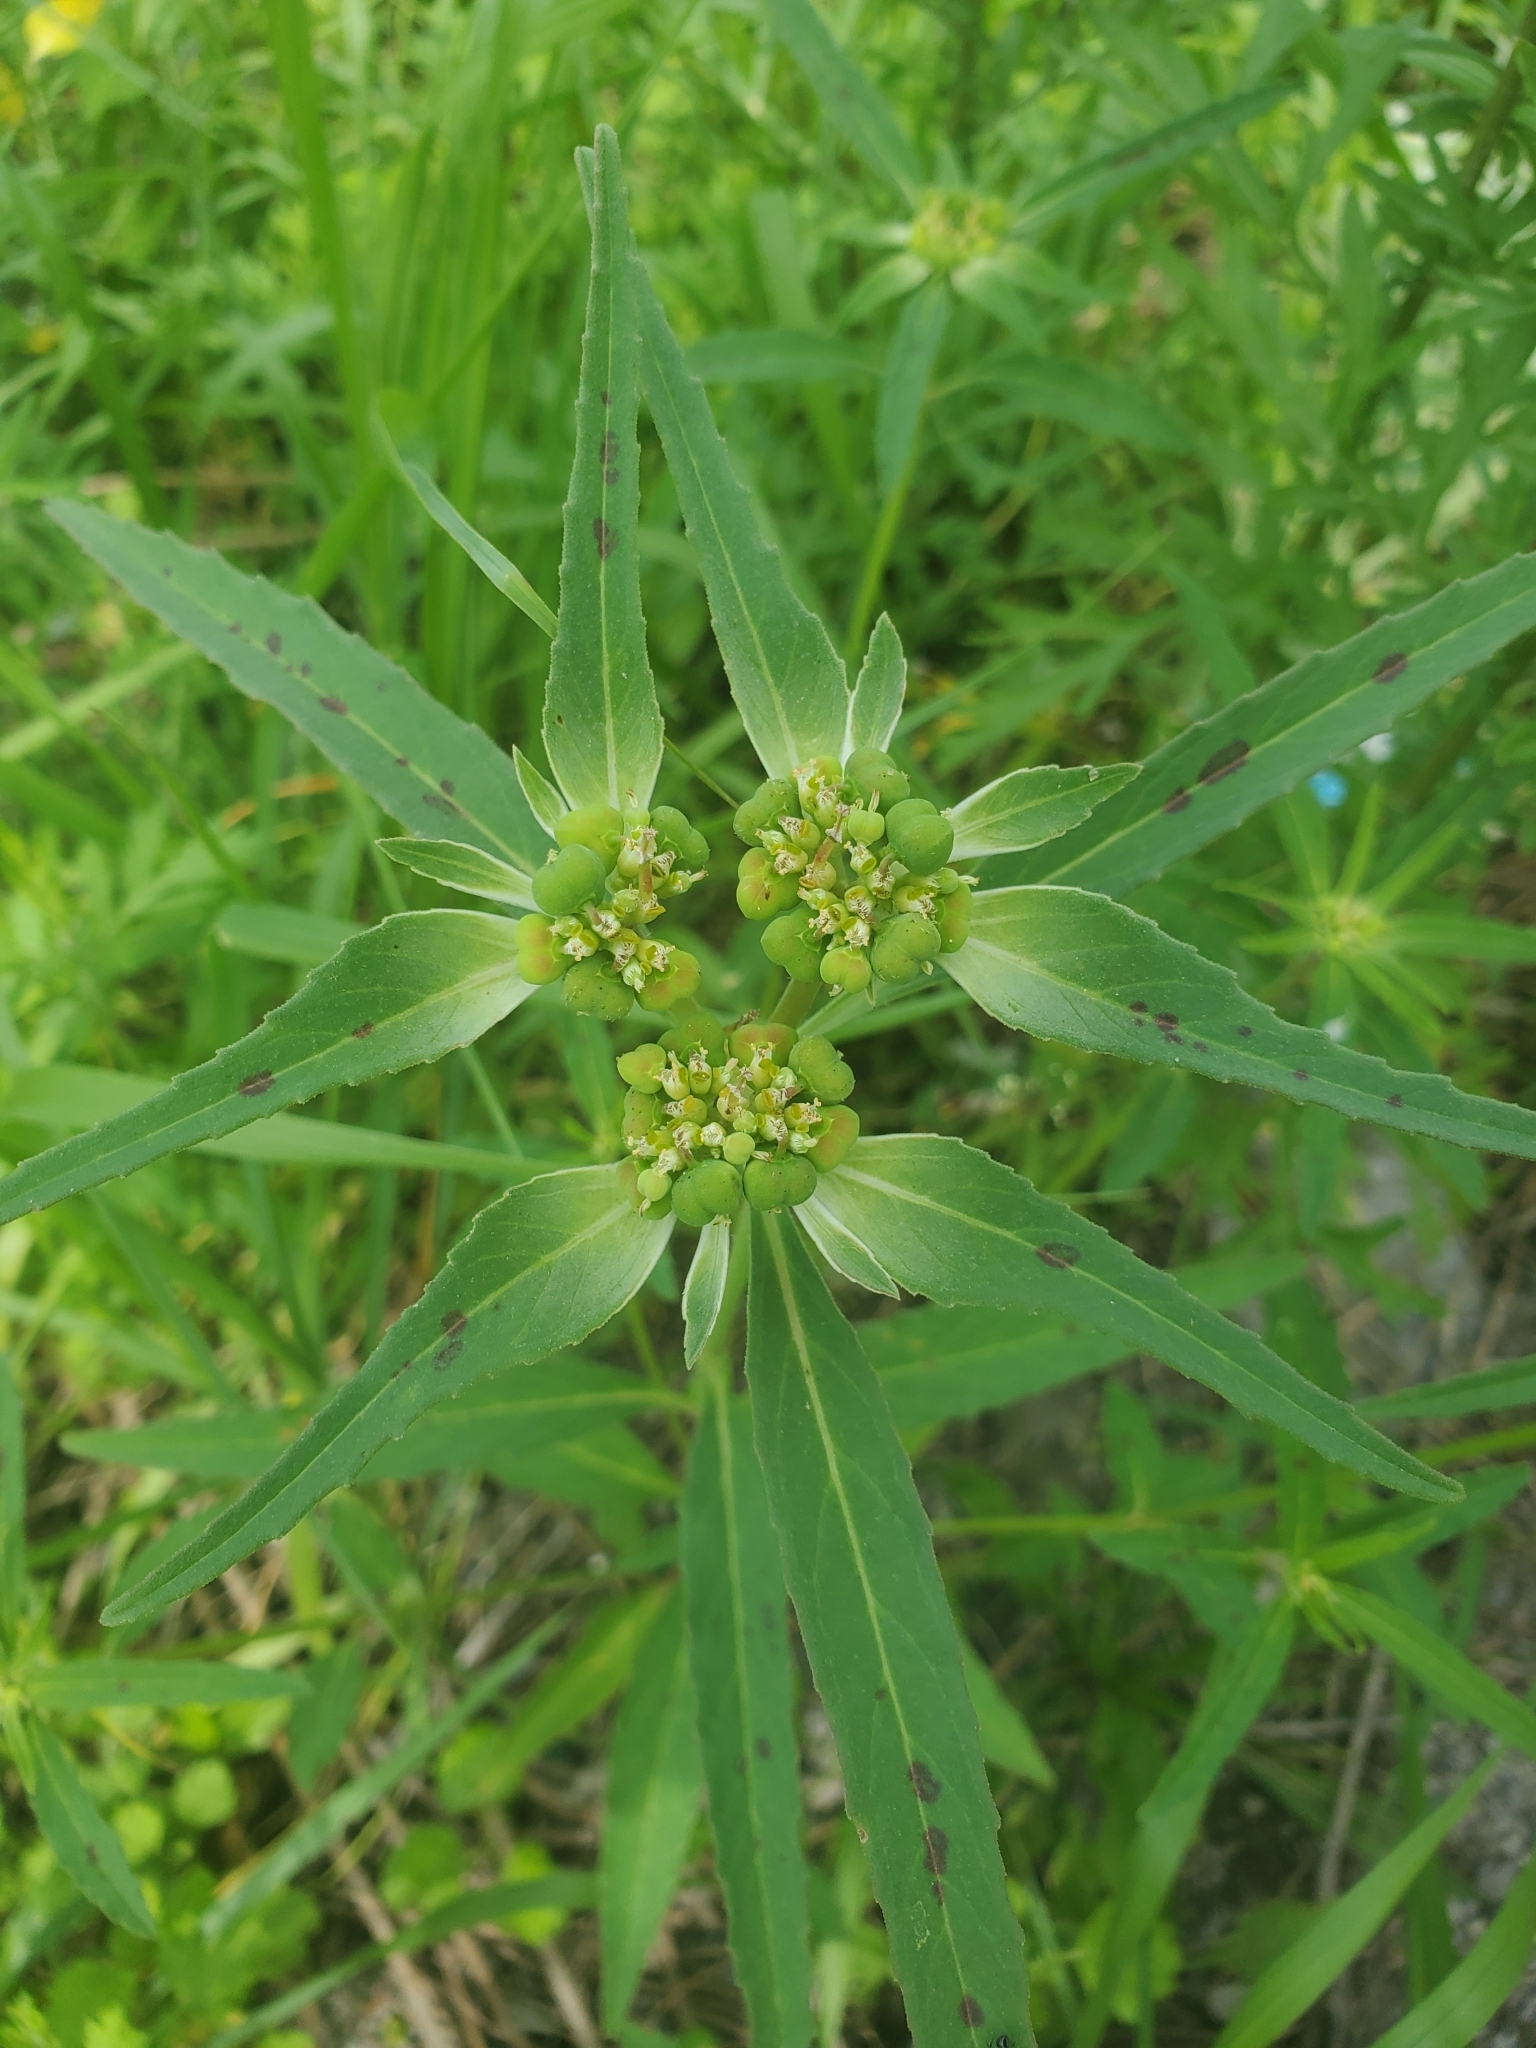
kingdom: Plantae
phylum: Tracheophyta
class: Magnoliopsida
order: Malpighiales
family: Euphorbiaceae
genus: Euphorbia
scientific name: Euphorbia davidii
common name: David's spurge
